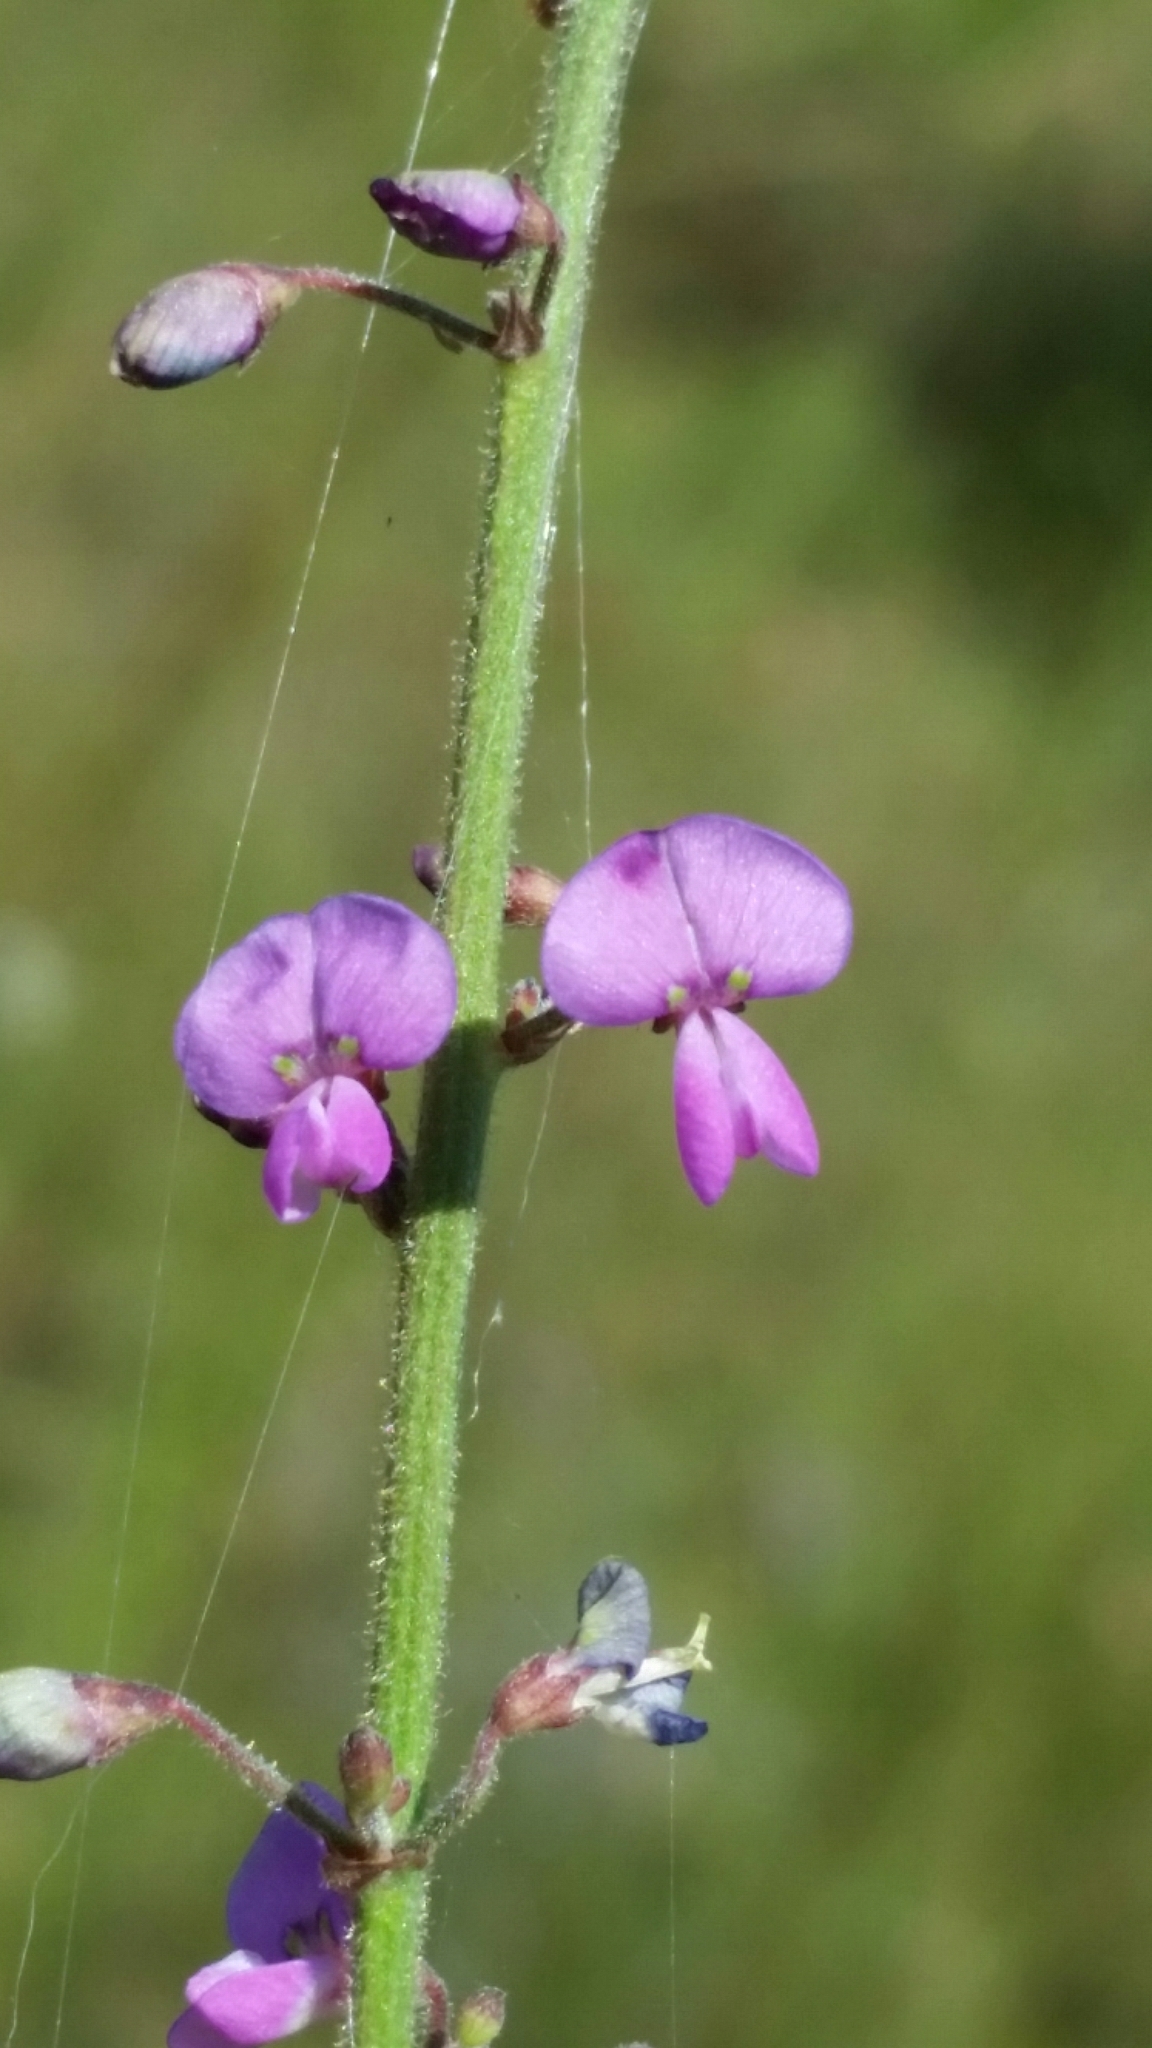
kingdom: Plantae
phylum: Tracheophyta
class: Magnoliopsida
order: Fabales
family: Fabaceae
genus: Desmodium
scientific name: Desmodium tenuifolium
